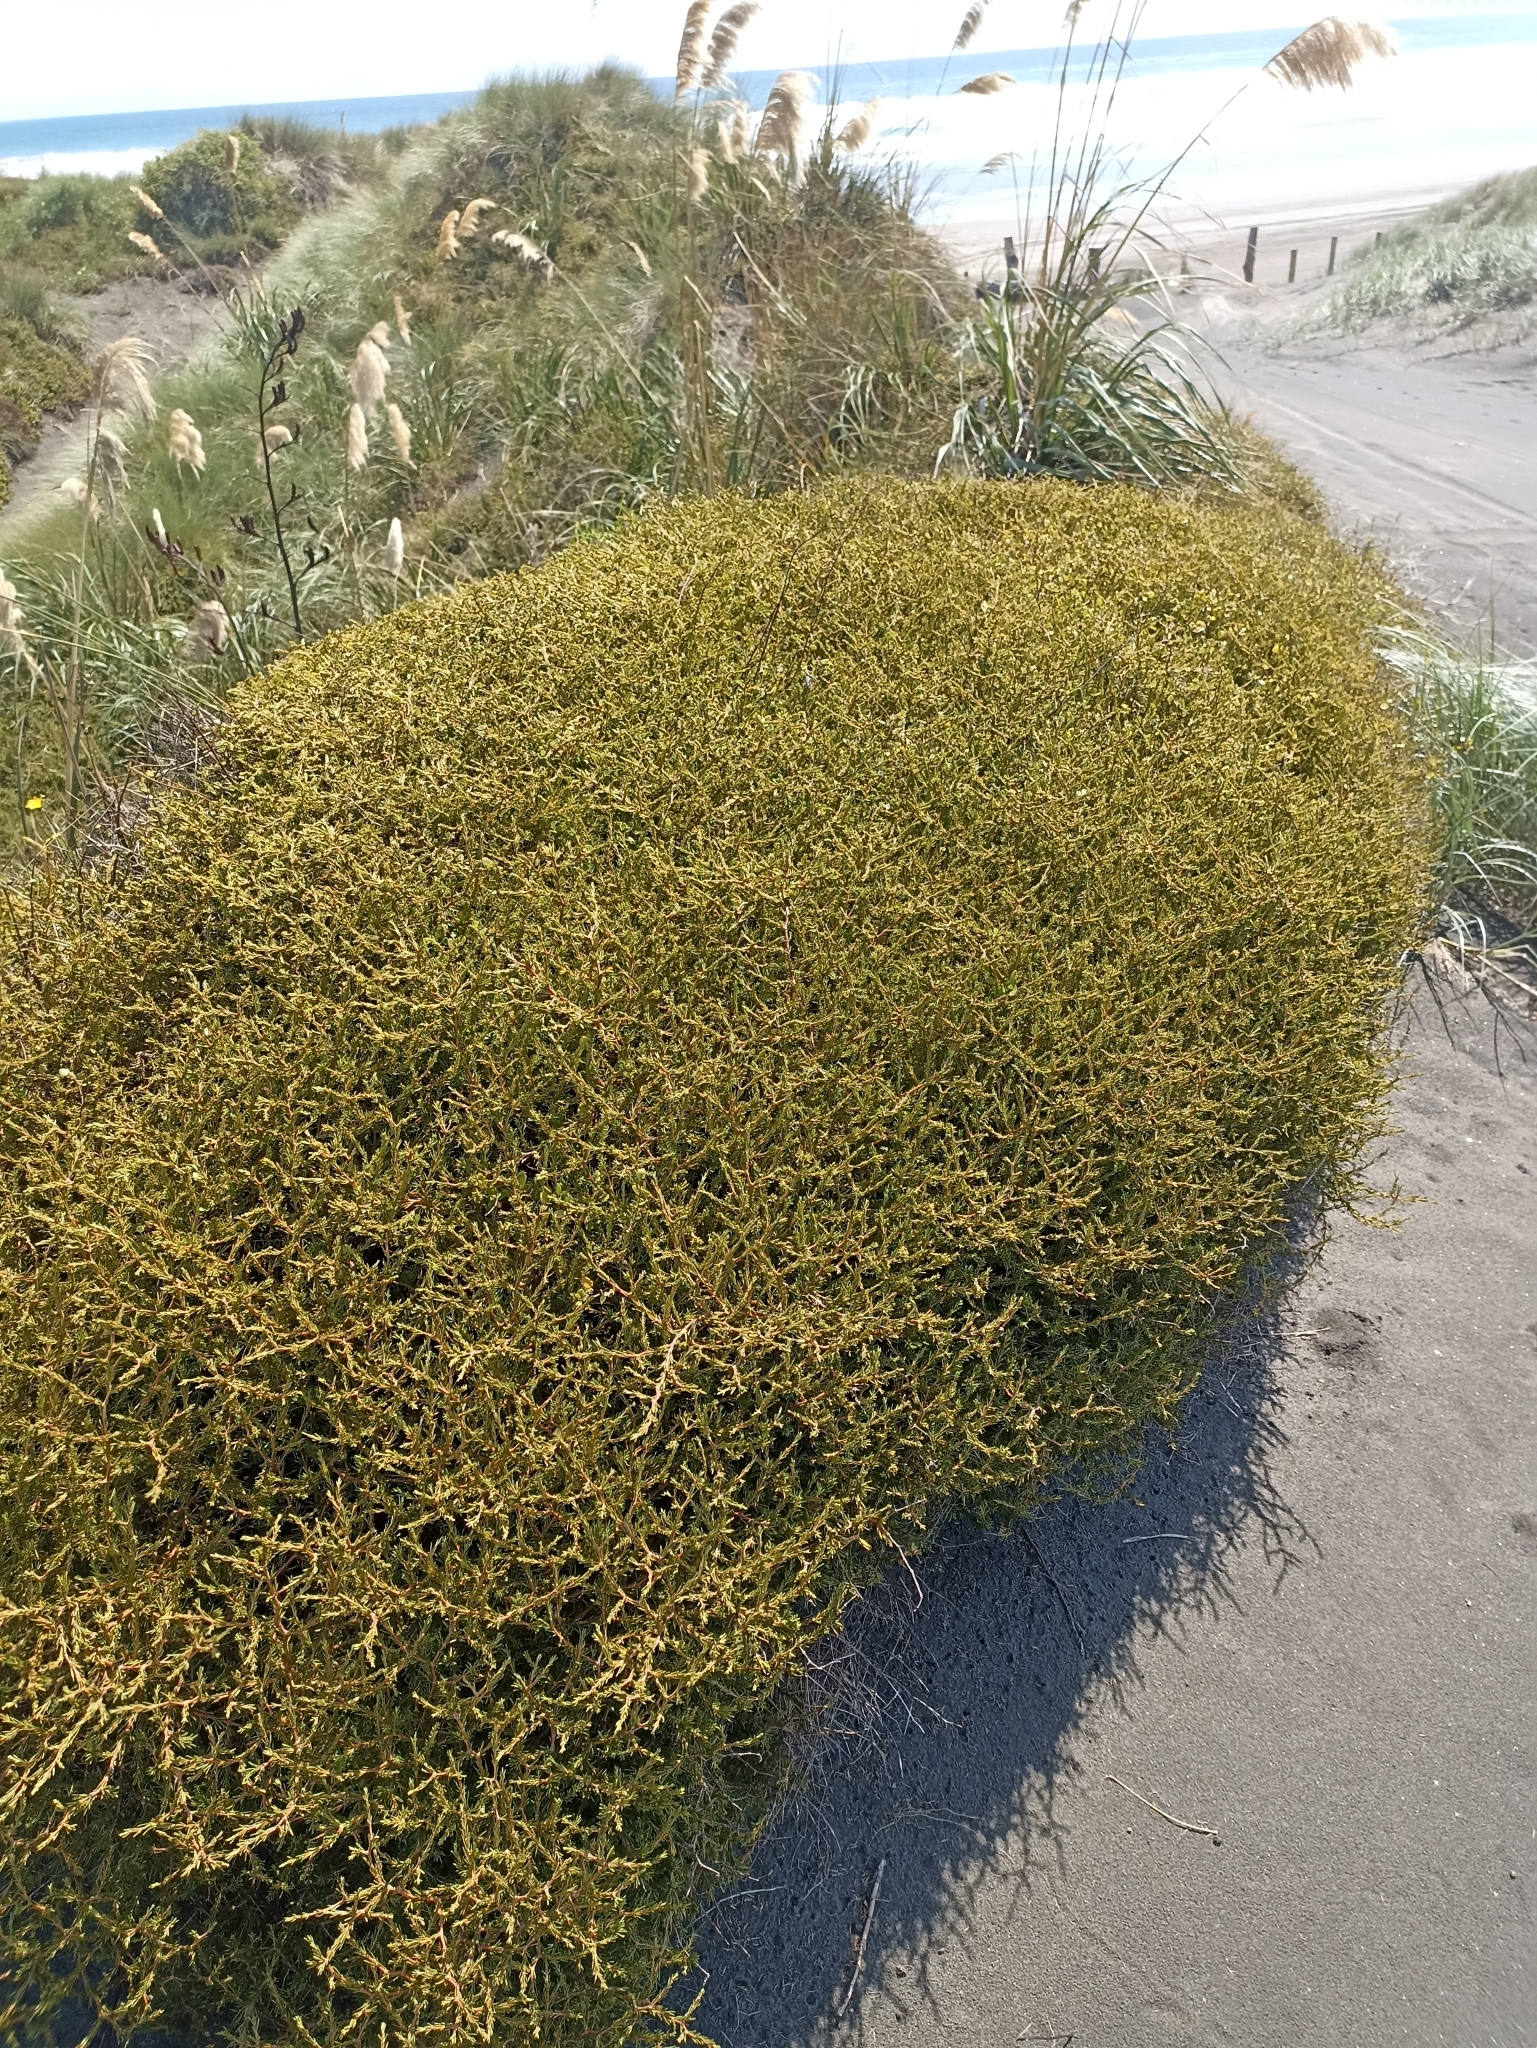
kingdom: Plantae
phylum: Tracheophyta
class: Magnoliopsida
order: Gentianales
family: Rubiaceae
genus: Coprosma
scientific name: Coprosma acerosa
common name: Sand coprosma
